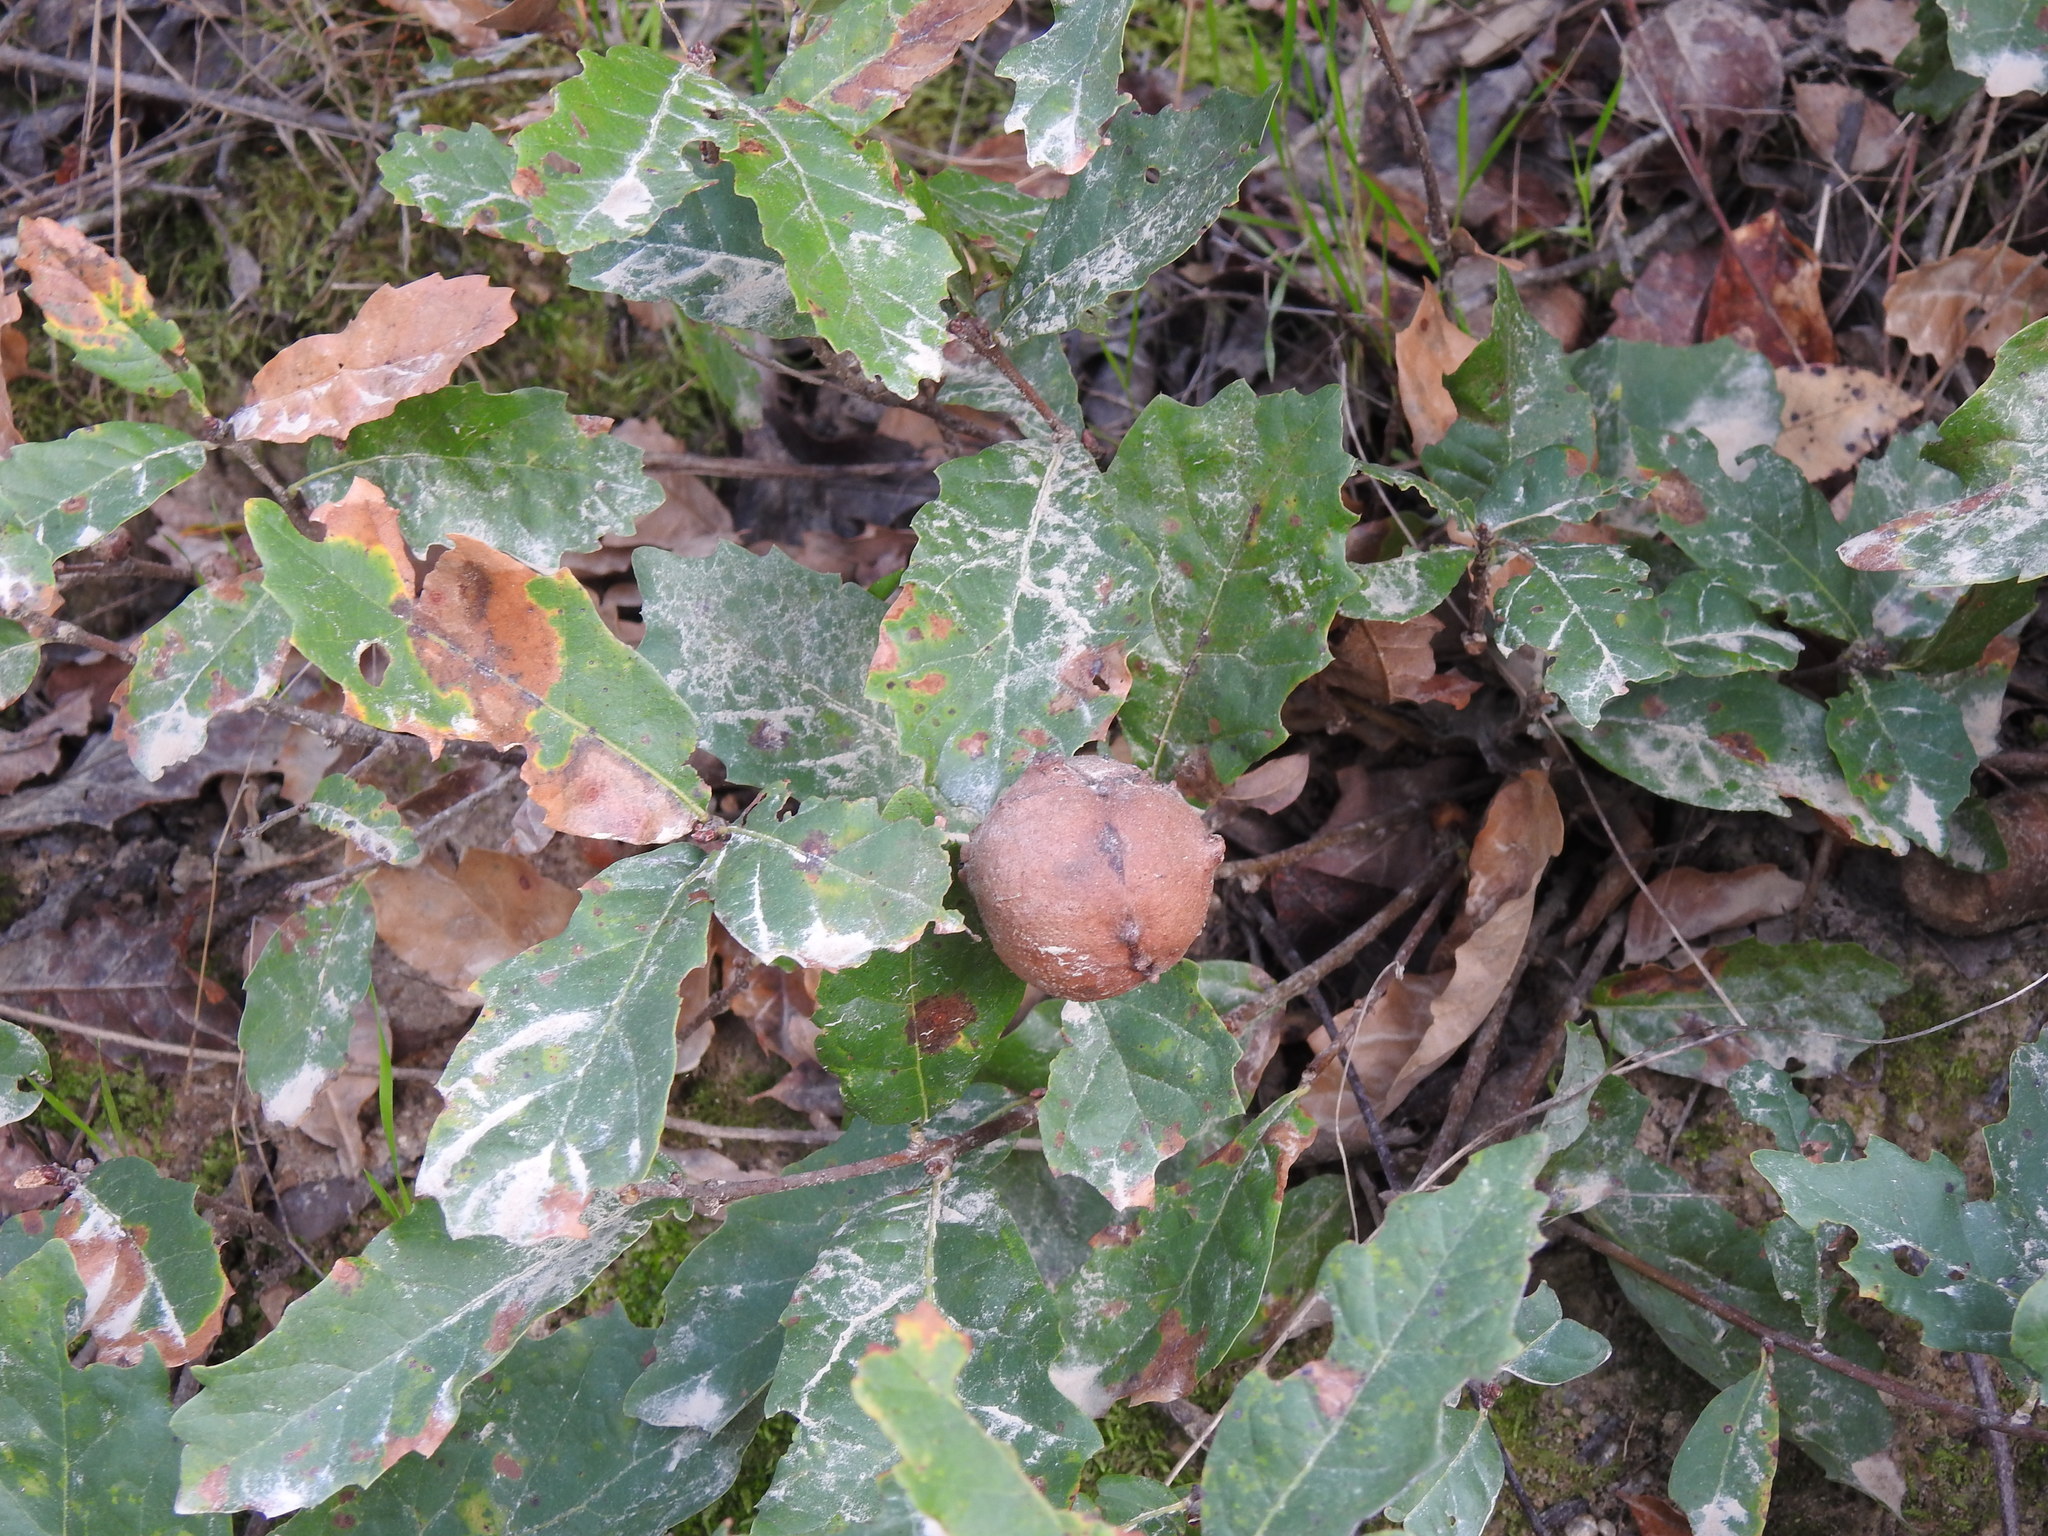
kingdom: Plantae
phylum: Tracheophyta
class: Magnoliopsida
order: Fagales
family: Fagaceae
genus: Quercus
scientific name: Quercus lusitanica
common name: Scrub gall oak
